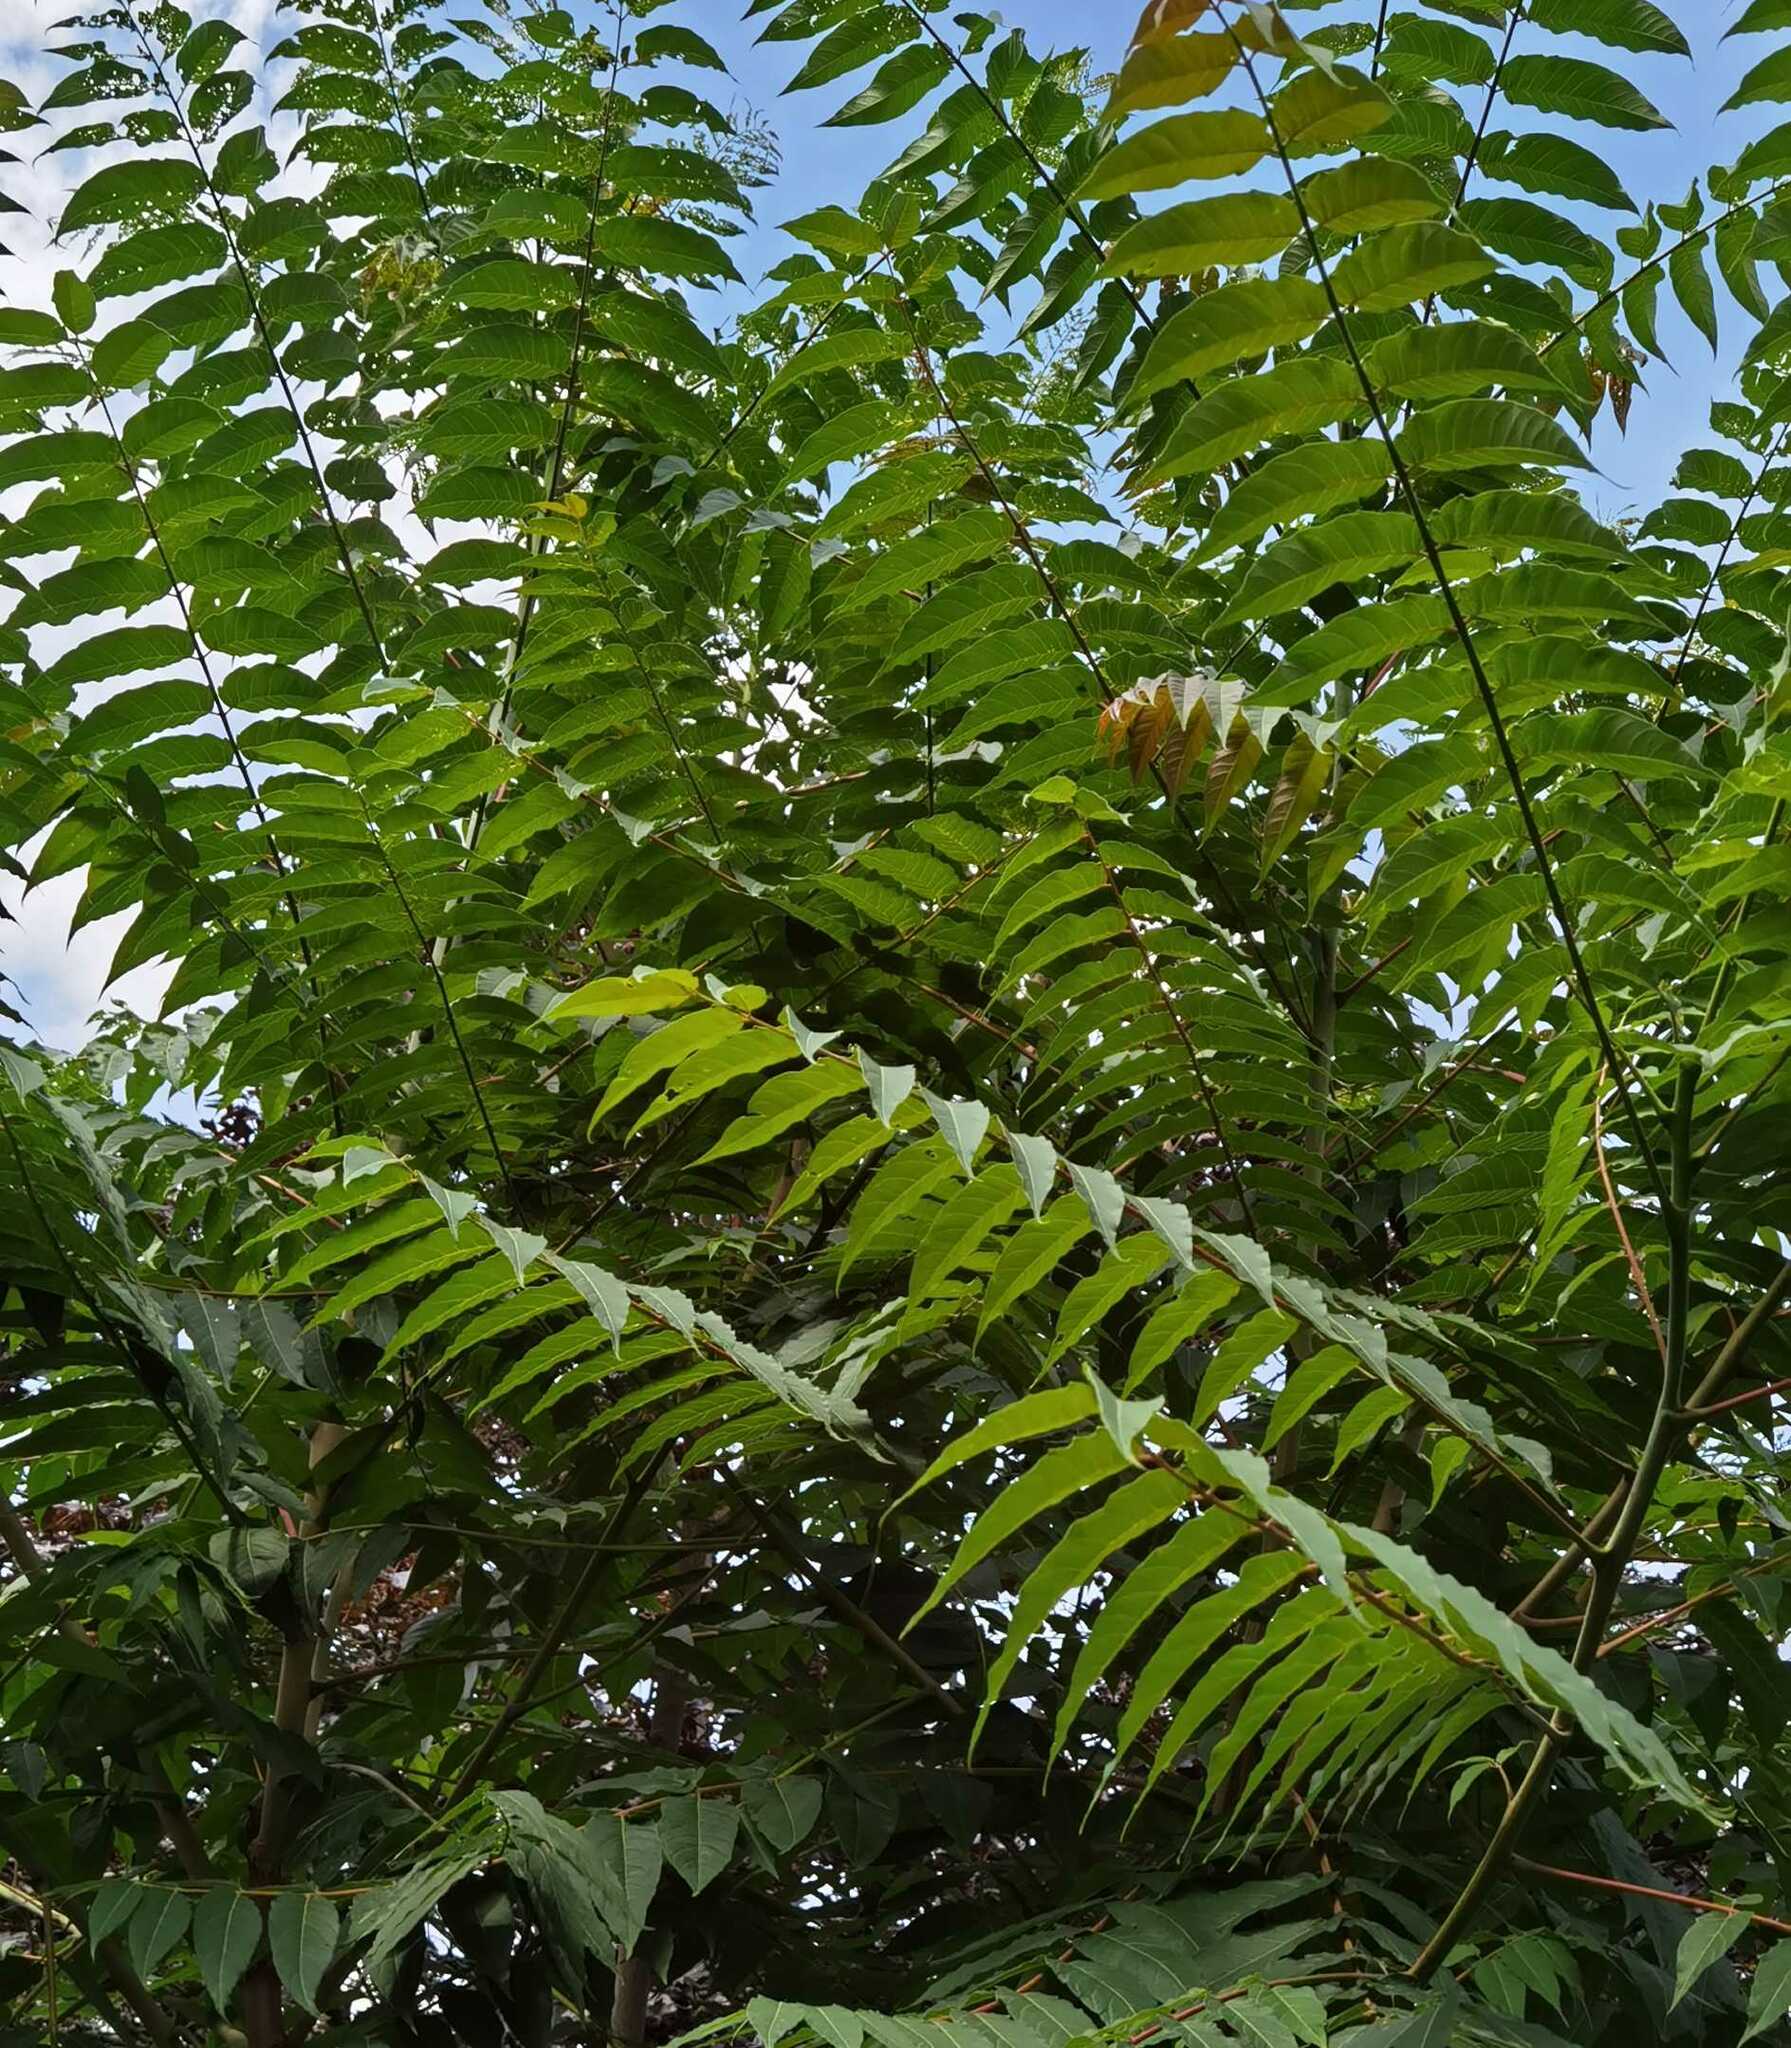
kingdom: Plantae
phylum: Tracheophyta
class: Magnoliopsida
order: Sapindales
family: Simaroubaceae
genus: Ailanthus
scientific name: Ailanthus altissima
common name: Tree-of-heaven
